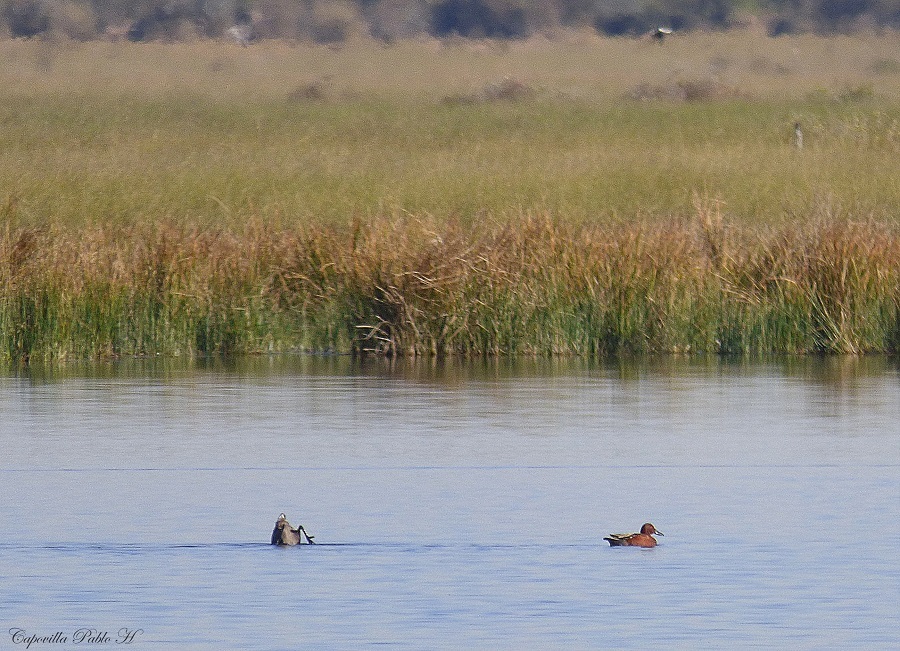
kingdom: Animalia
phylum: Chordata
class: Aves
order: Anseriformes
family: Anatidae
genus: Spatula
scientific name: Spatula cyanoptera
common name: Cinnamon teal
